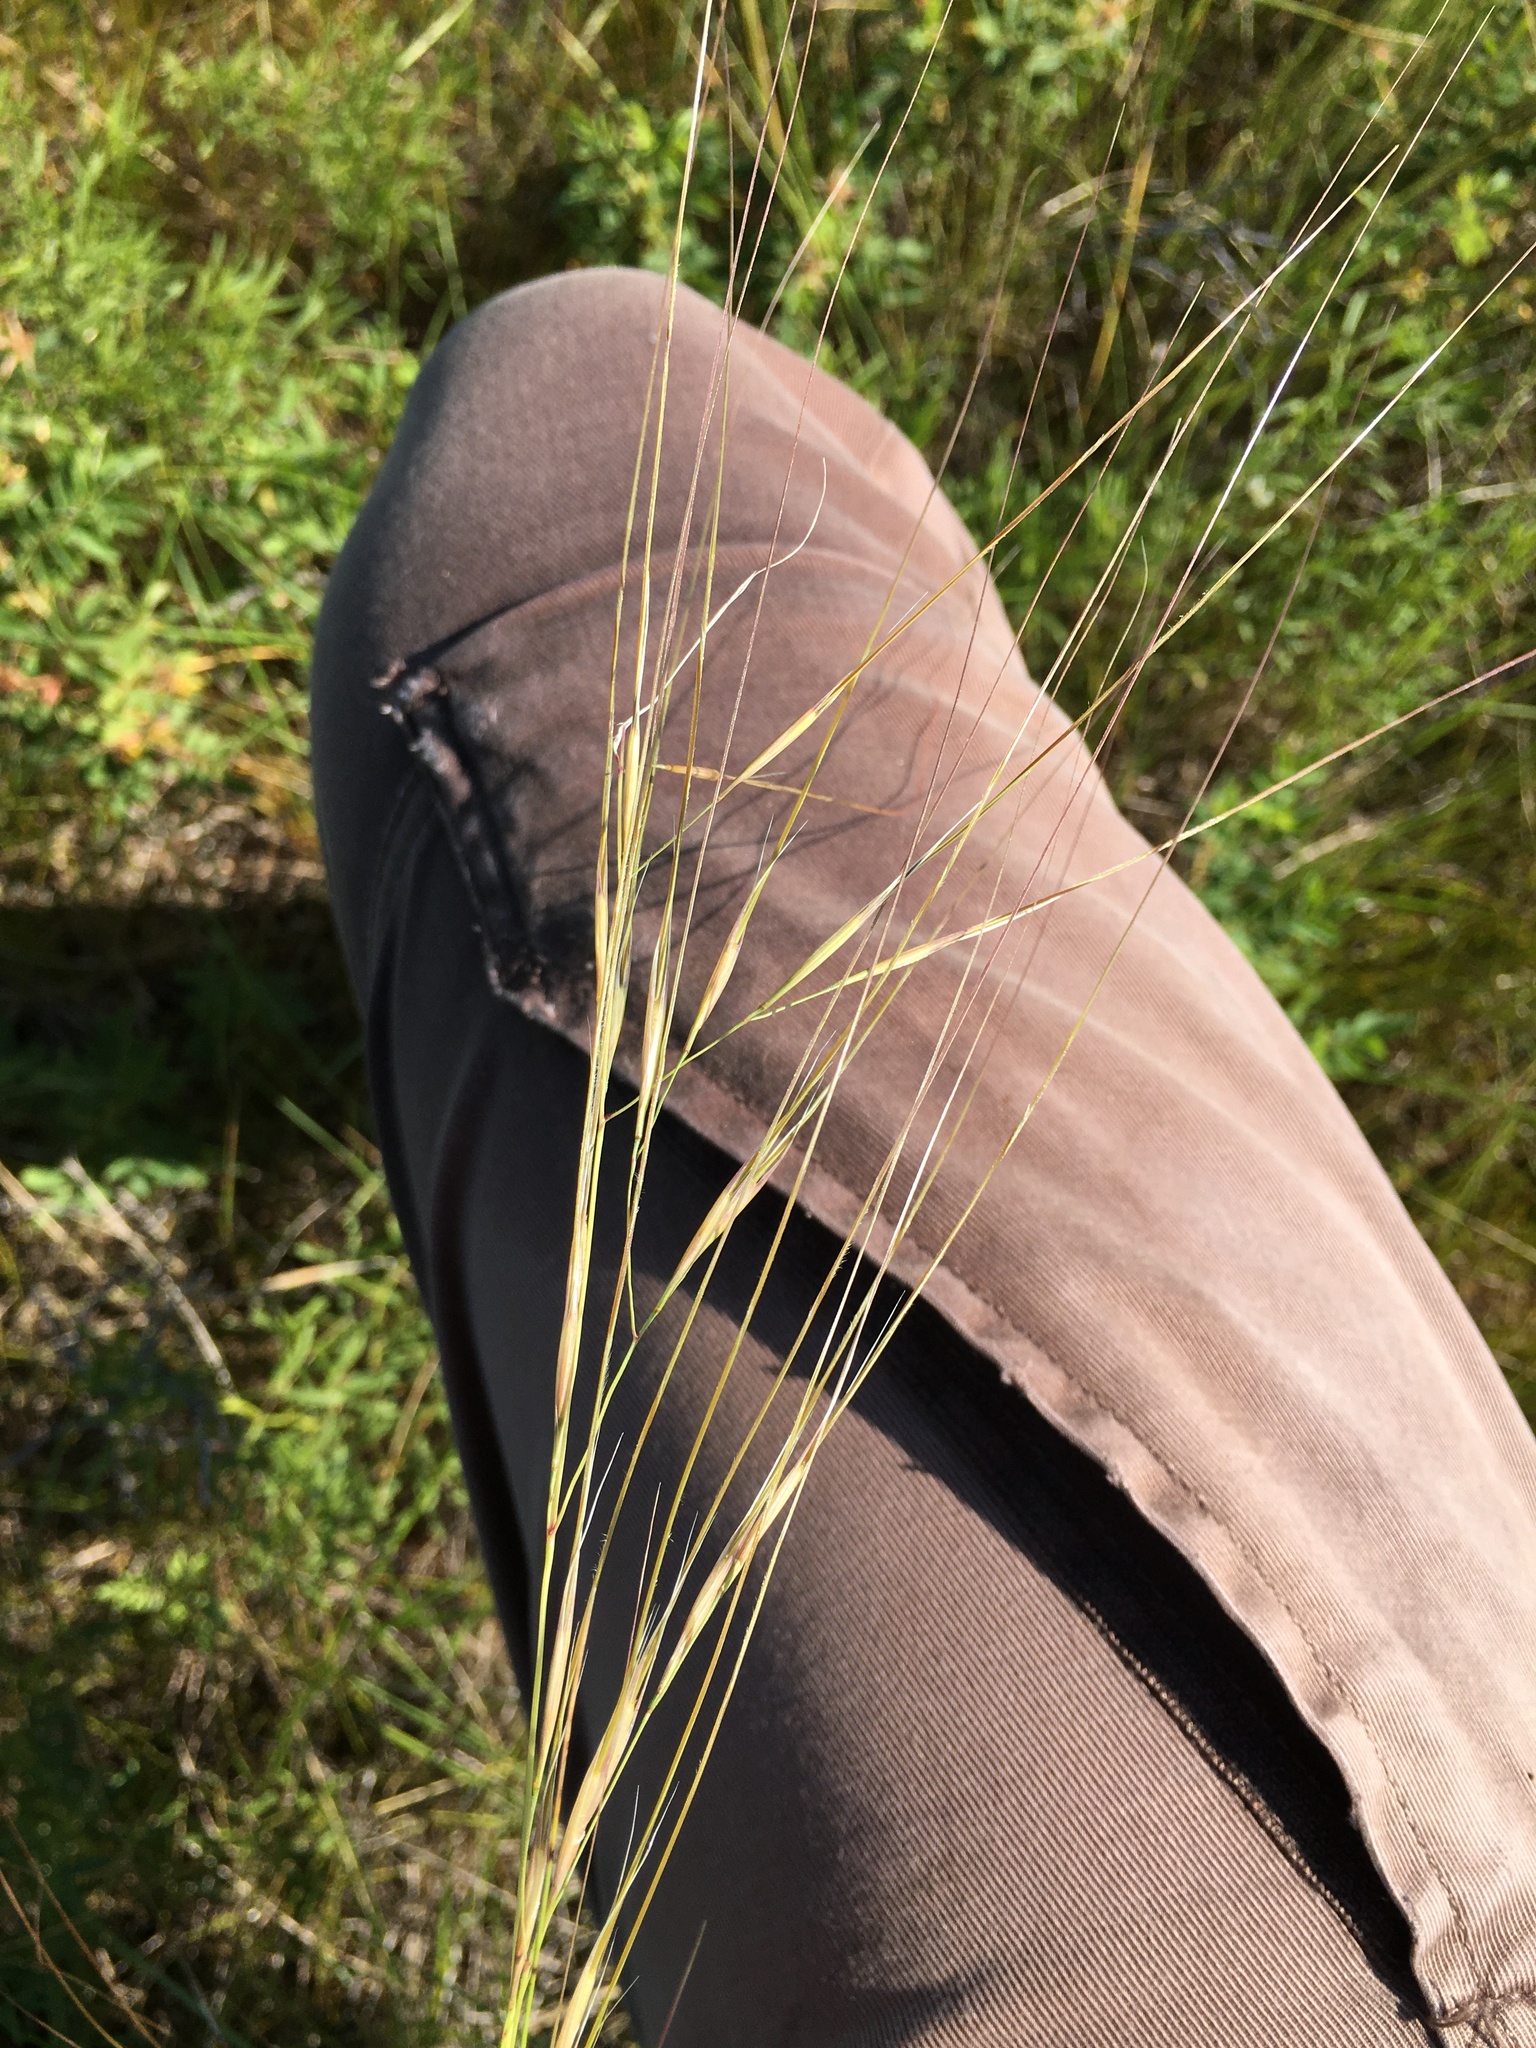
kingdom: Plantae
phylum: Tracheophyta
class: Liliopsida
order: Poales
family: Poaceae
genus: Hesperostipa
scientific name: Hesperostipa curtiseta
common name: Canada needle-and-thread grass
